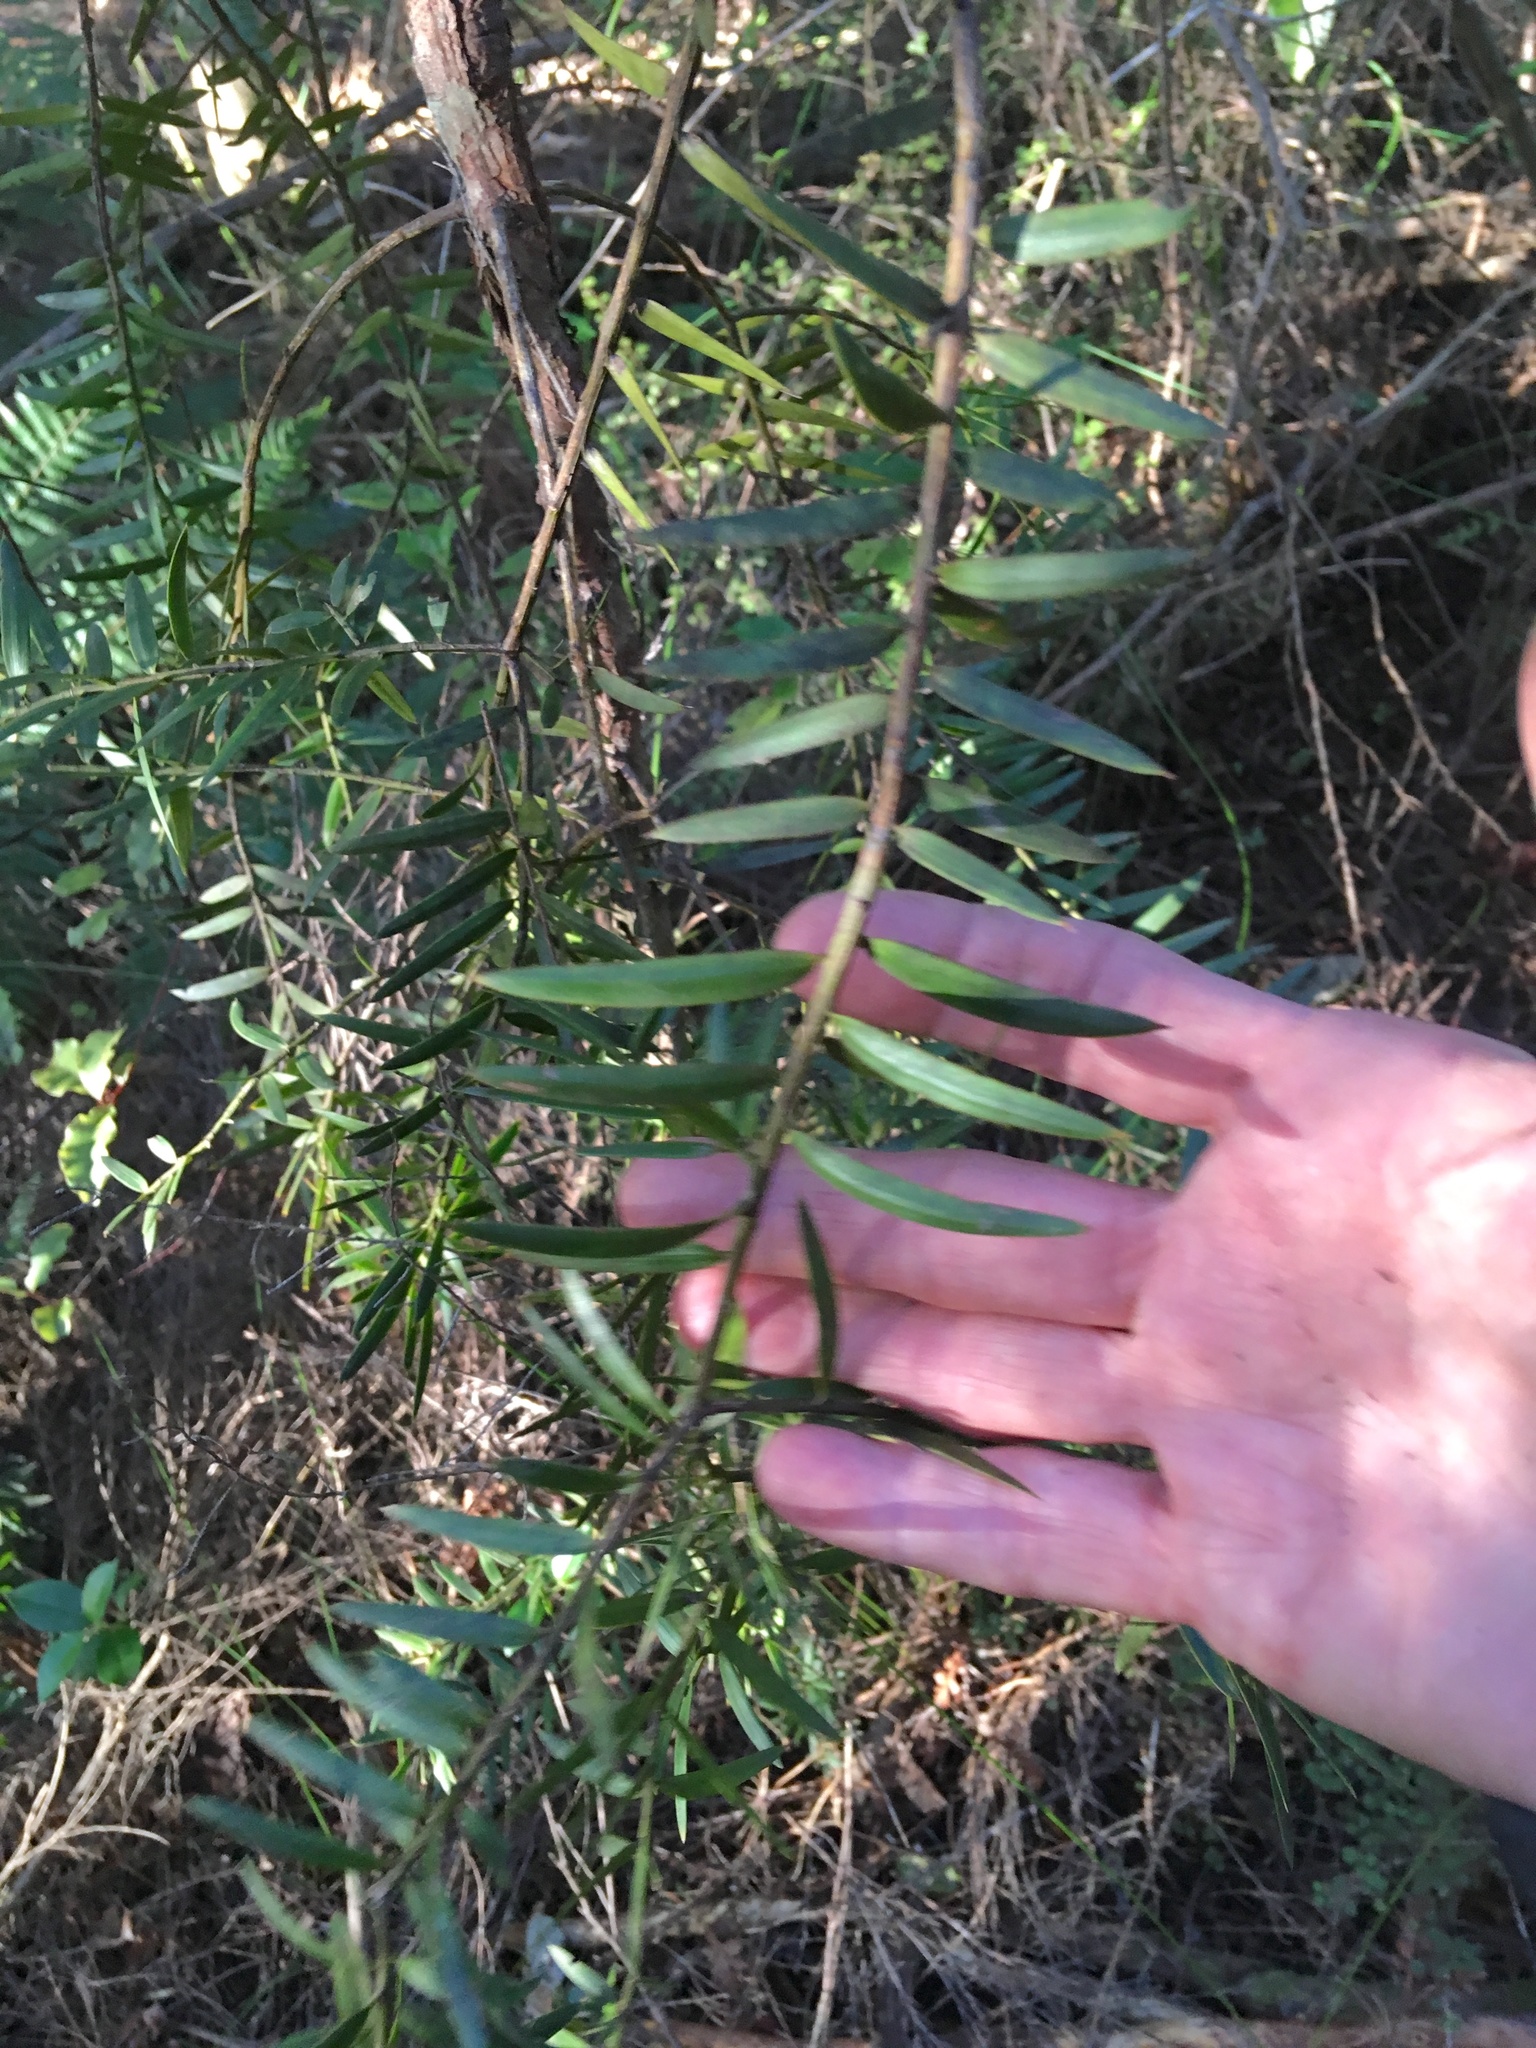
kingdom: Plantae
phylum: Tracheophyta
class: Pinopsida
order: Pinales
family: Podocarpaceae
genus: Podocarpus
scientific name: Podocarpus totara
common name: Totara
